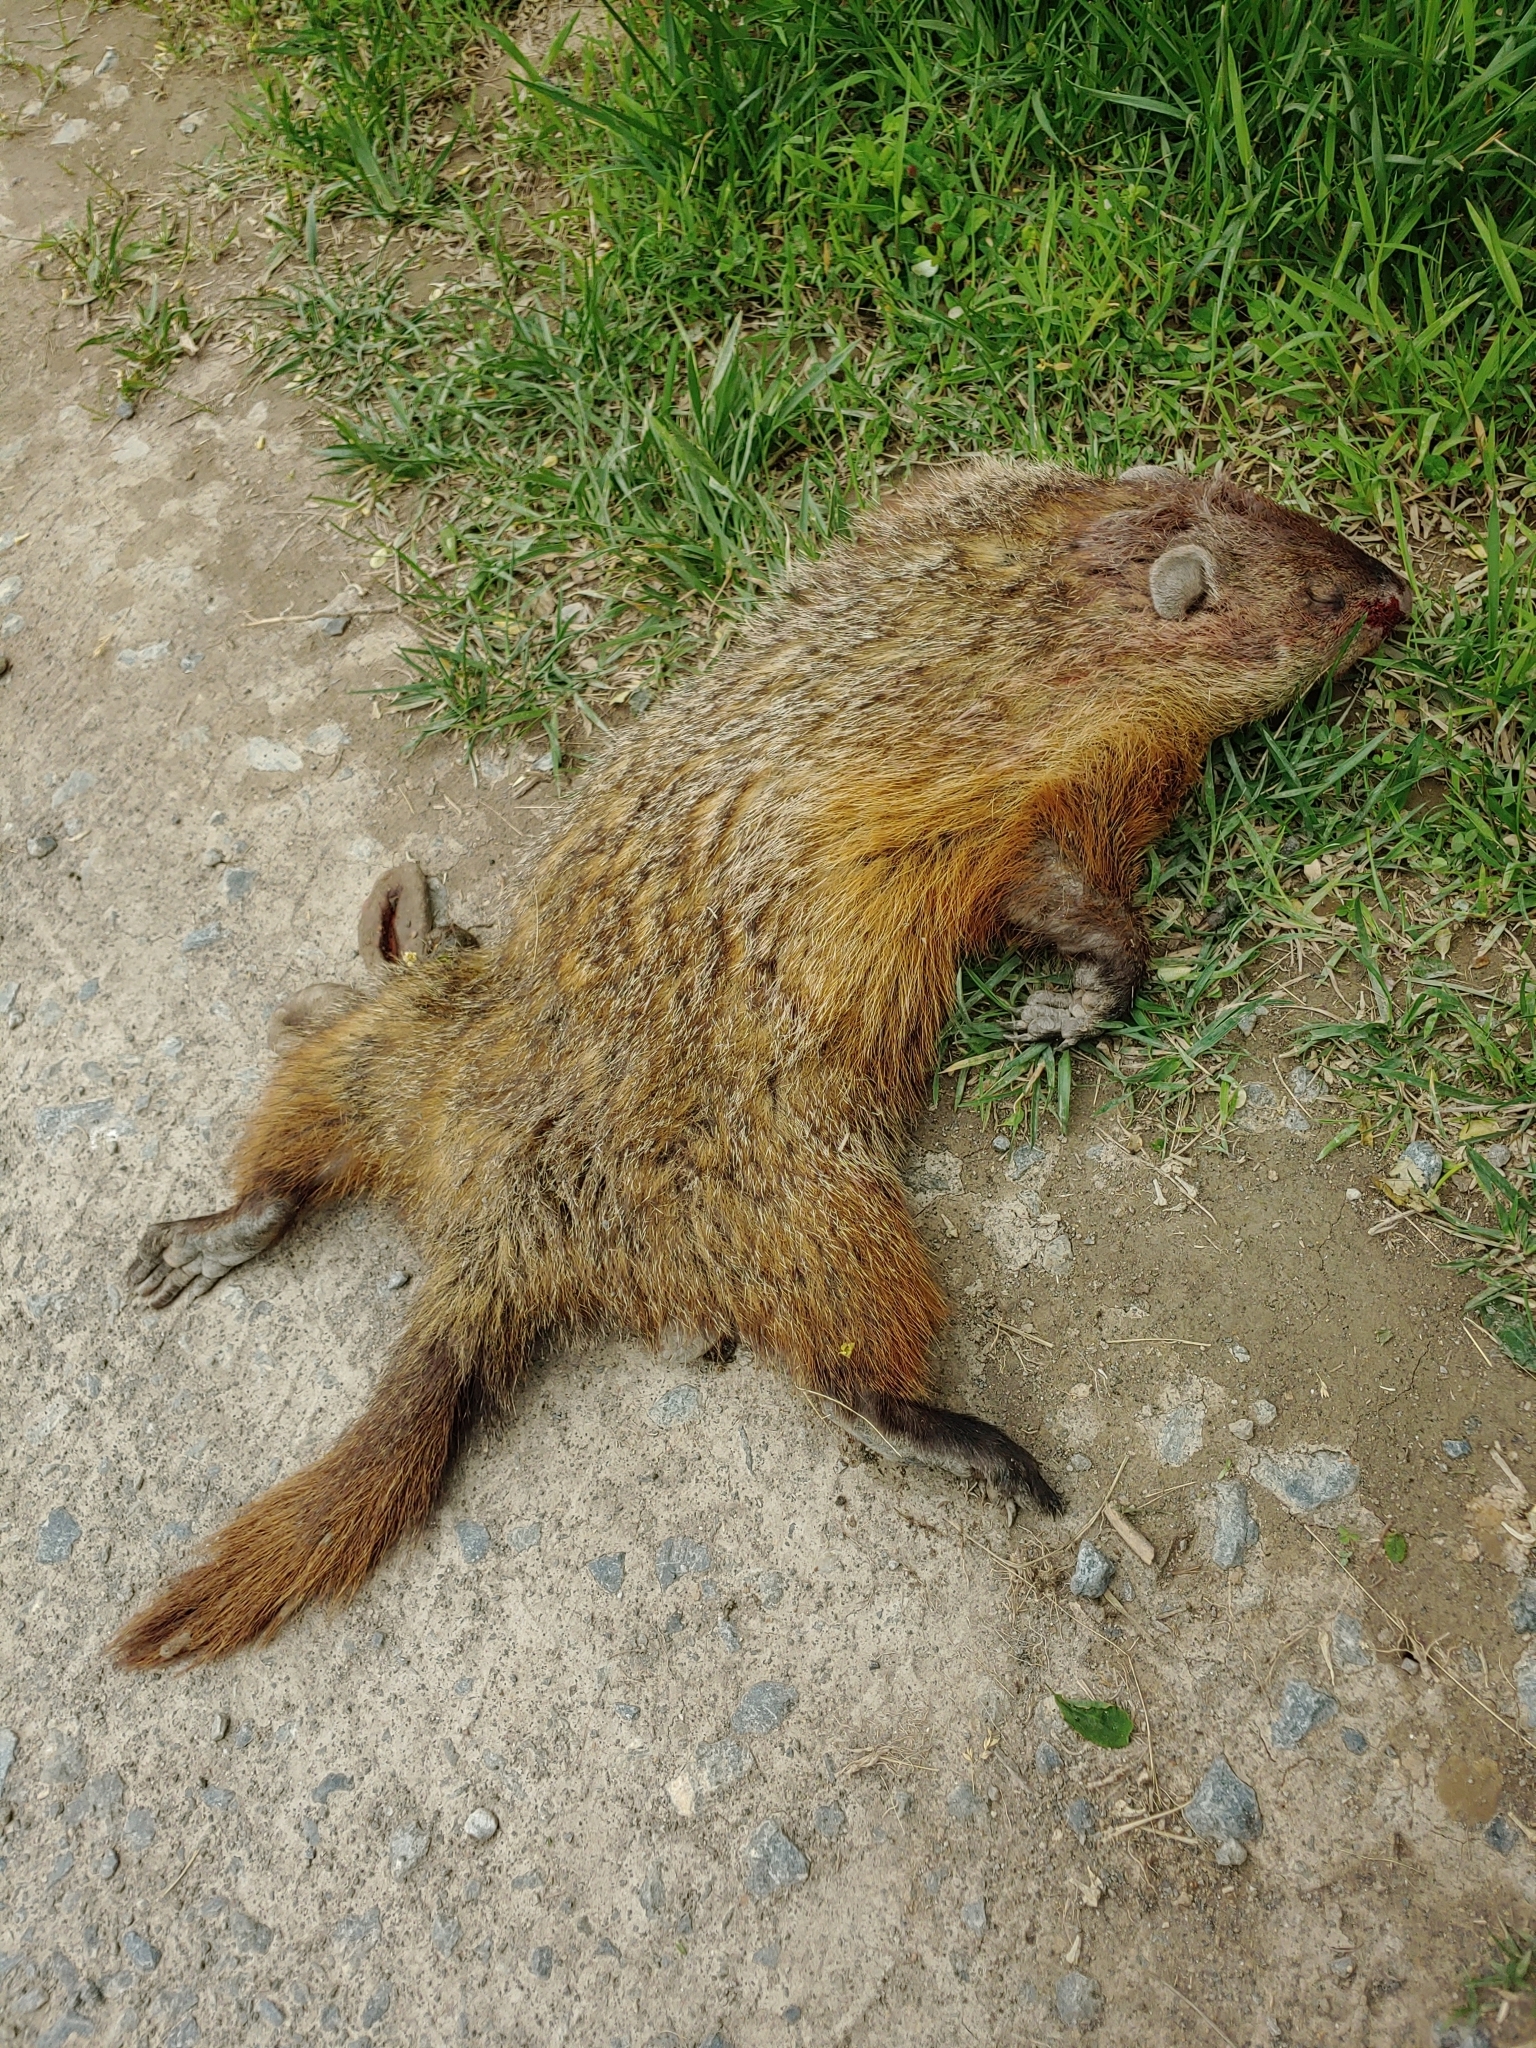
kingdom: Animalia
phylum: Chordata
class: Mammalia
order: Rodentia
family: Sciuridae
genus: Marmota
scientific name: Marmota monax
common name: Groundhog
